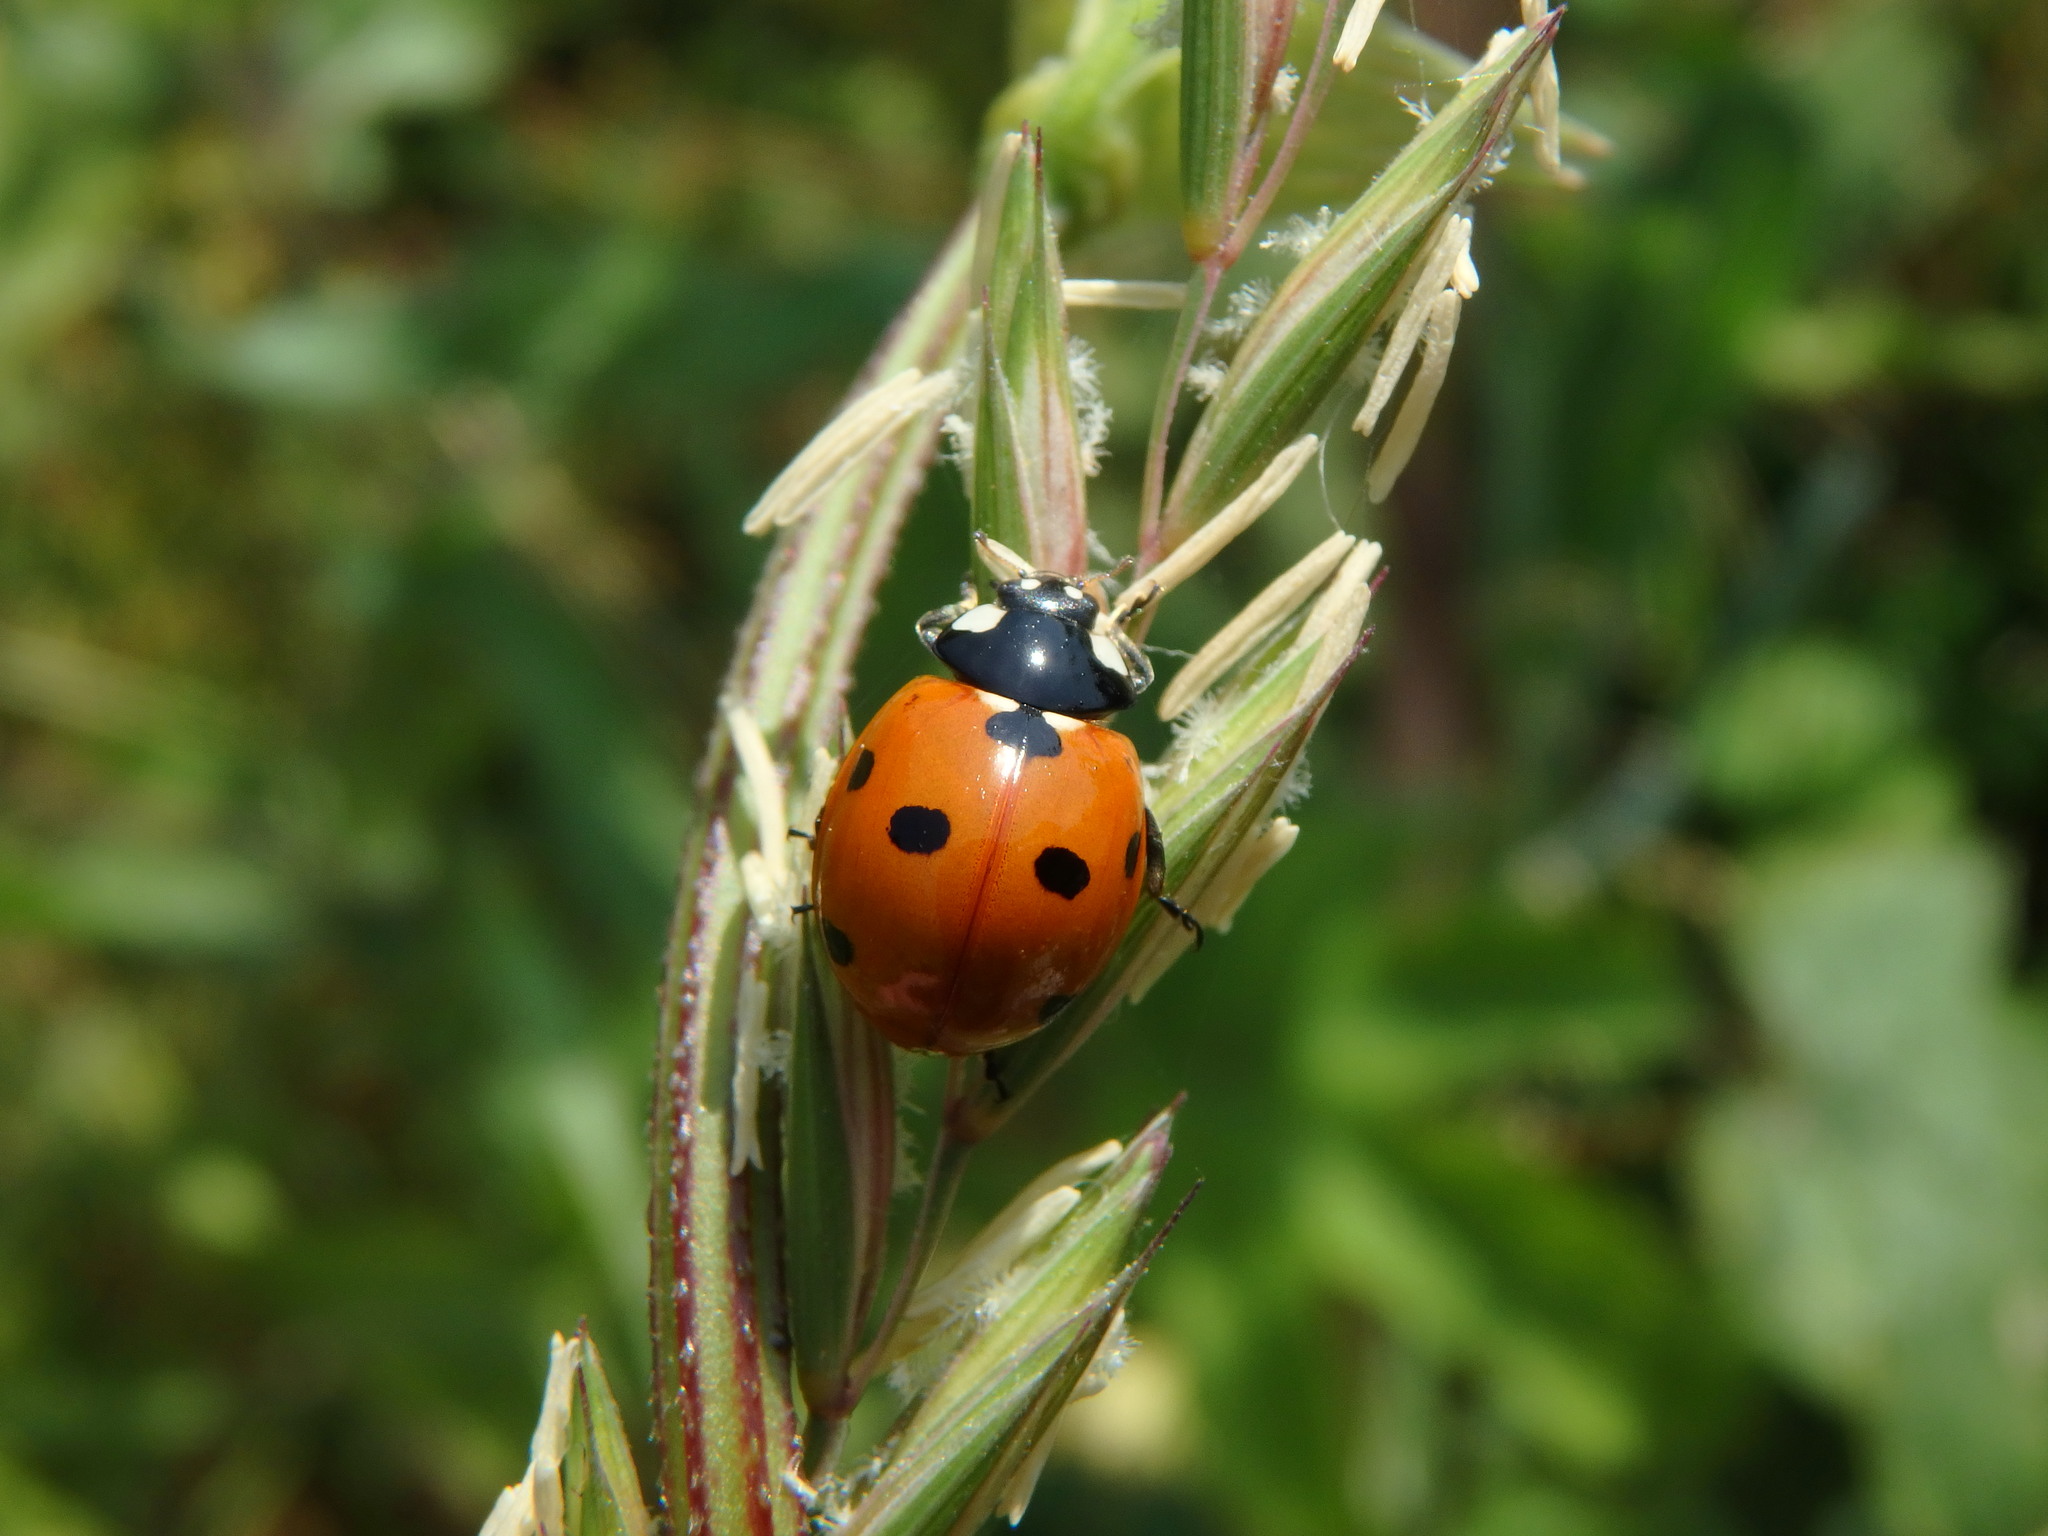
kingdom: Animalia
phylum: Arthropoda
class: Insecta
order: Coleoptera
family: Coccinellidae
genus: Coccinella
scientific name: Coccinella septempunctata
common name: Sevenspotted lady beetle
